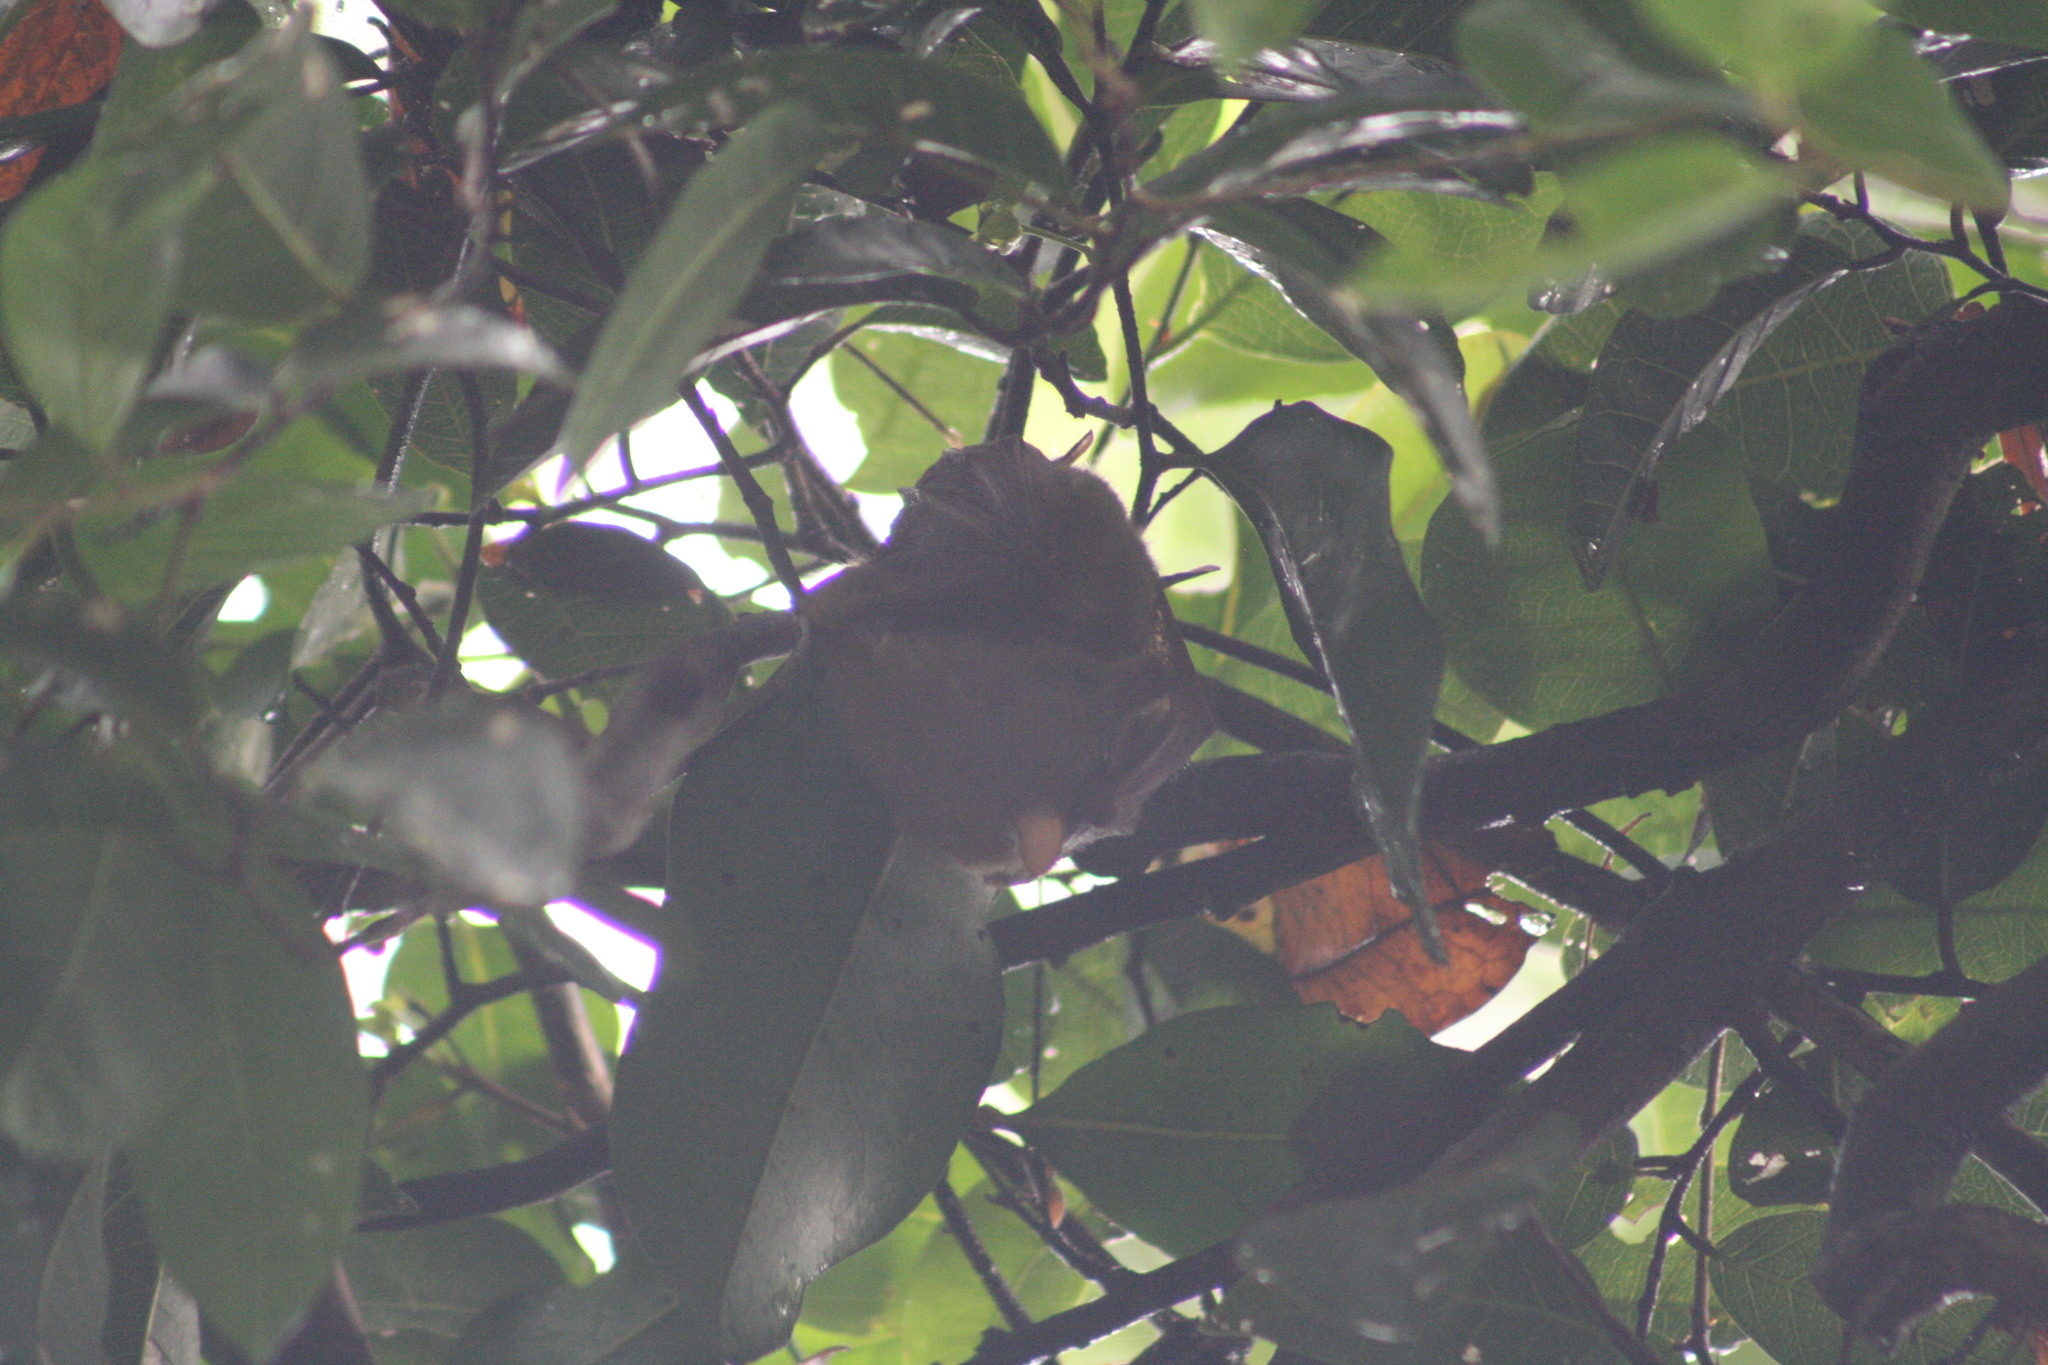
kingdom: Animalia
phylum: Chordata
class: Mammalia
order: Chiroptera
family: Pteropodidae
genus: Syconycteris
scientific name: Syconycteris australis
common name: Southern blossom bat
